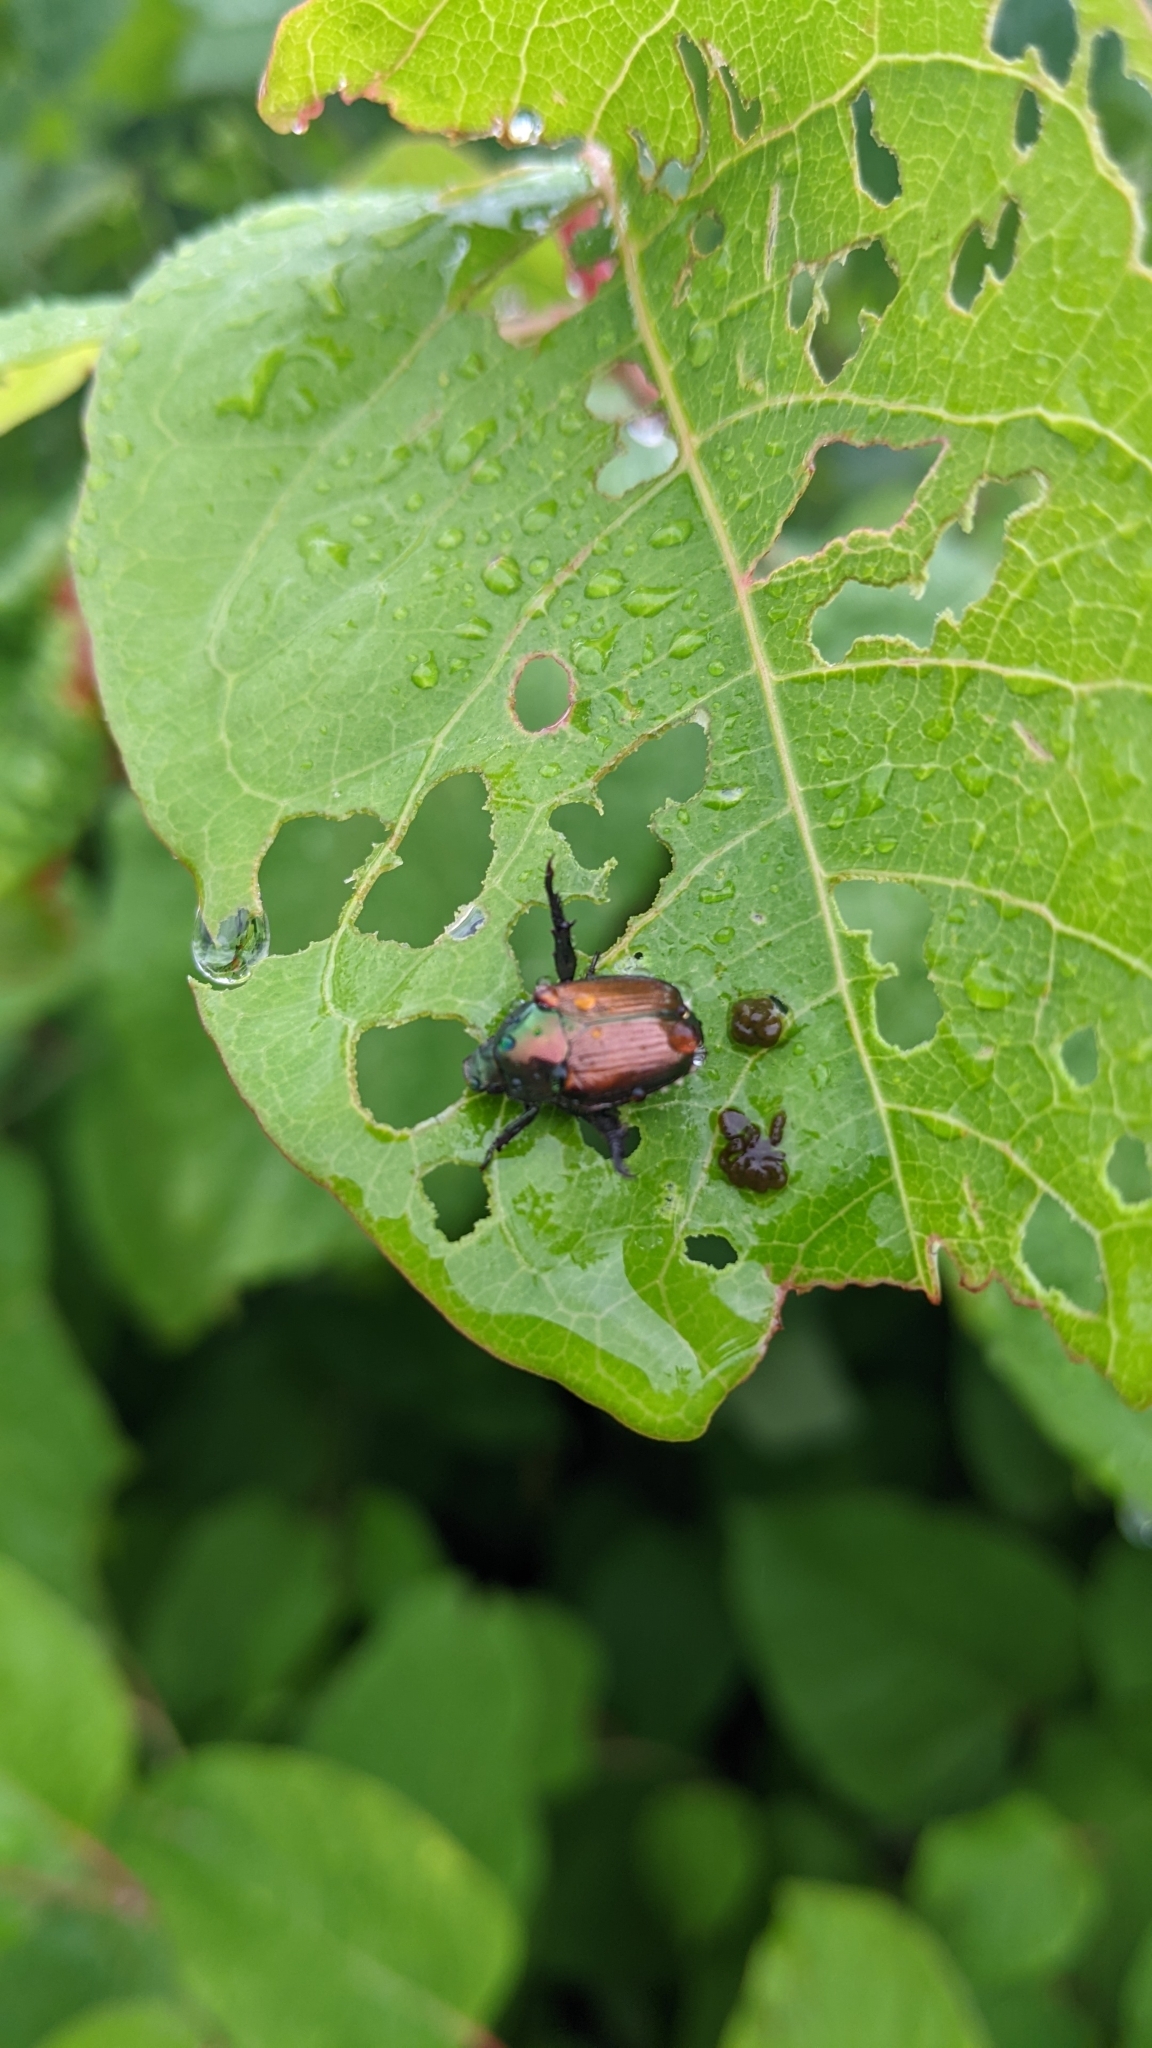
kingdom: Animalia
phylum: Arthropoda
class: Insecta
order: Coleoptera
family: Scarabaeidae
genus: Popillia
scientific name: Popillia japonica
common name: Japanese beetle
